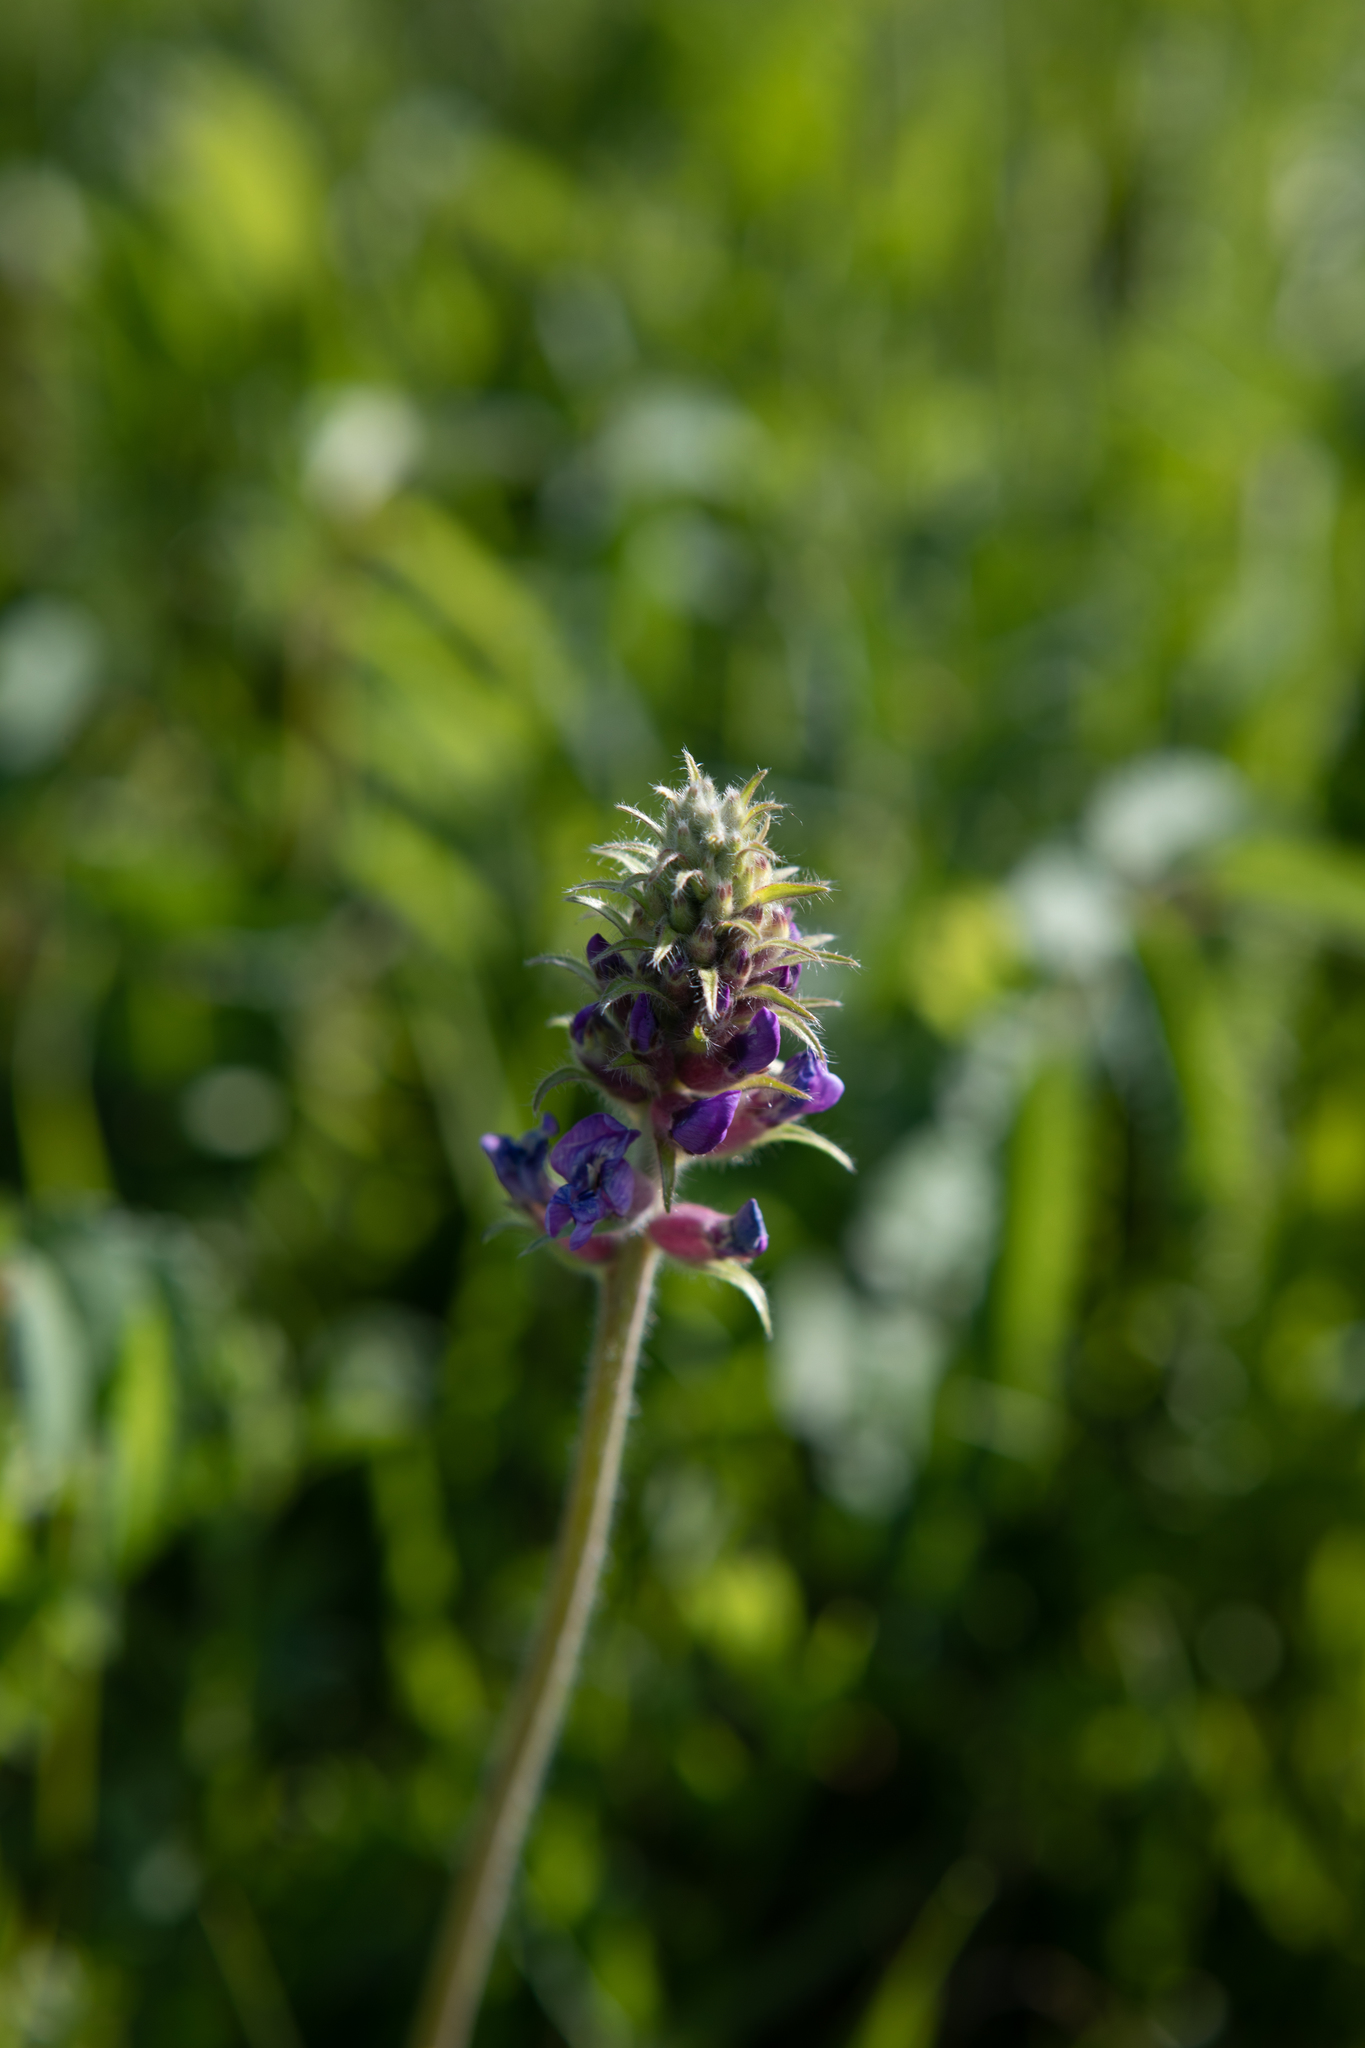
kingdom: Plantae
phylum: Tracheophyta
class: Magnoliopsida
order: Fabales
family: Fabaceae
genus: Oxytropis
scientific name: Oxytropis campanulata
